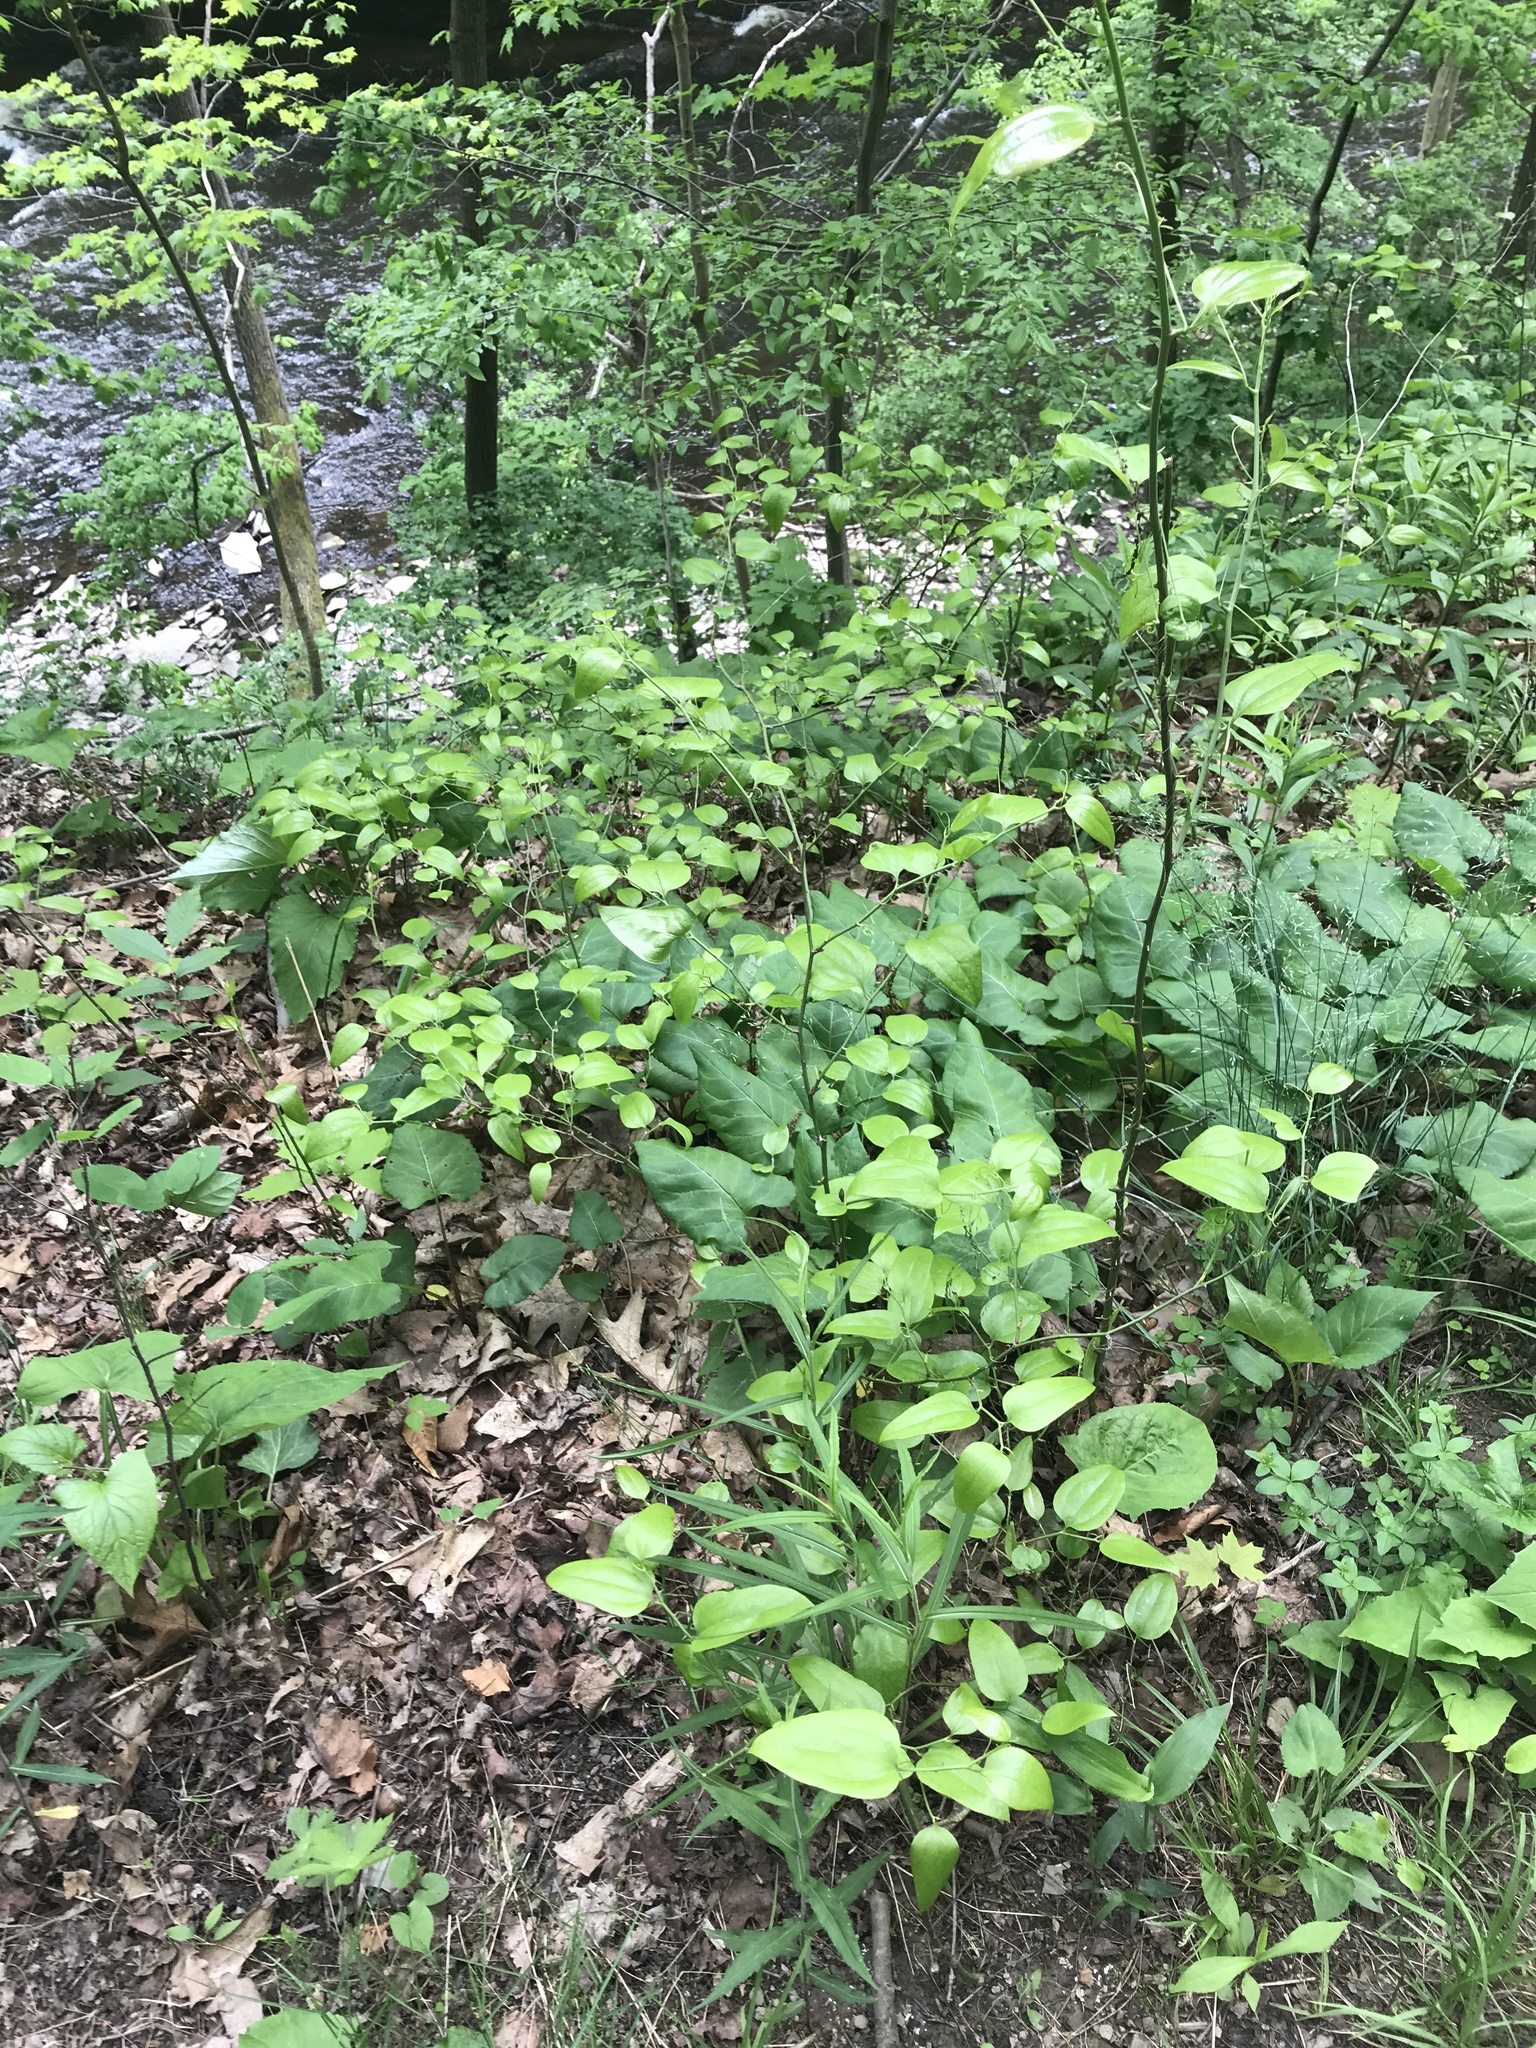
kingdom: Plantae
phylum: Tracheophyta
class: Liliopsida
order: Liliales
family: Smilacaceae
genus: Smilax
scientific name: Smilax rotundifolia
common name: Bullbriar
